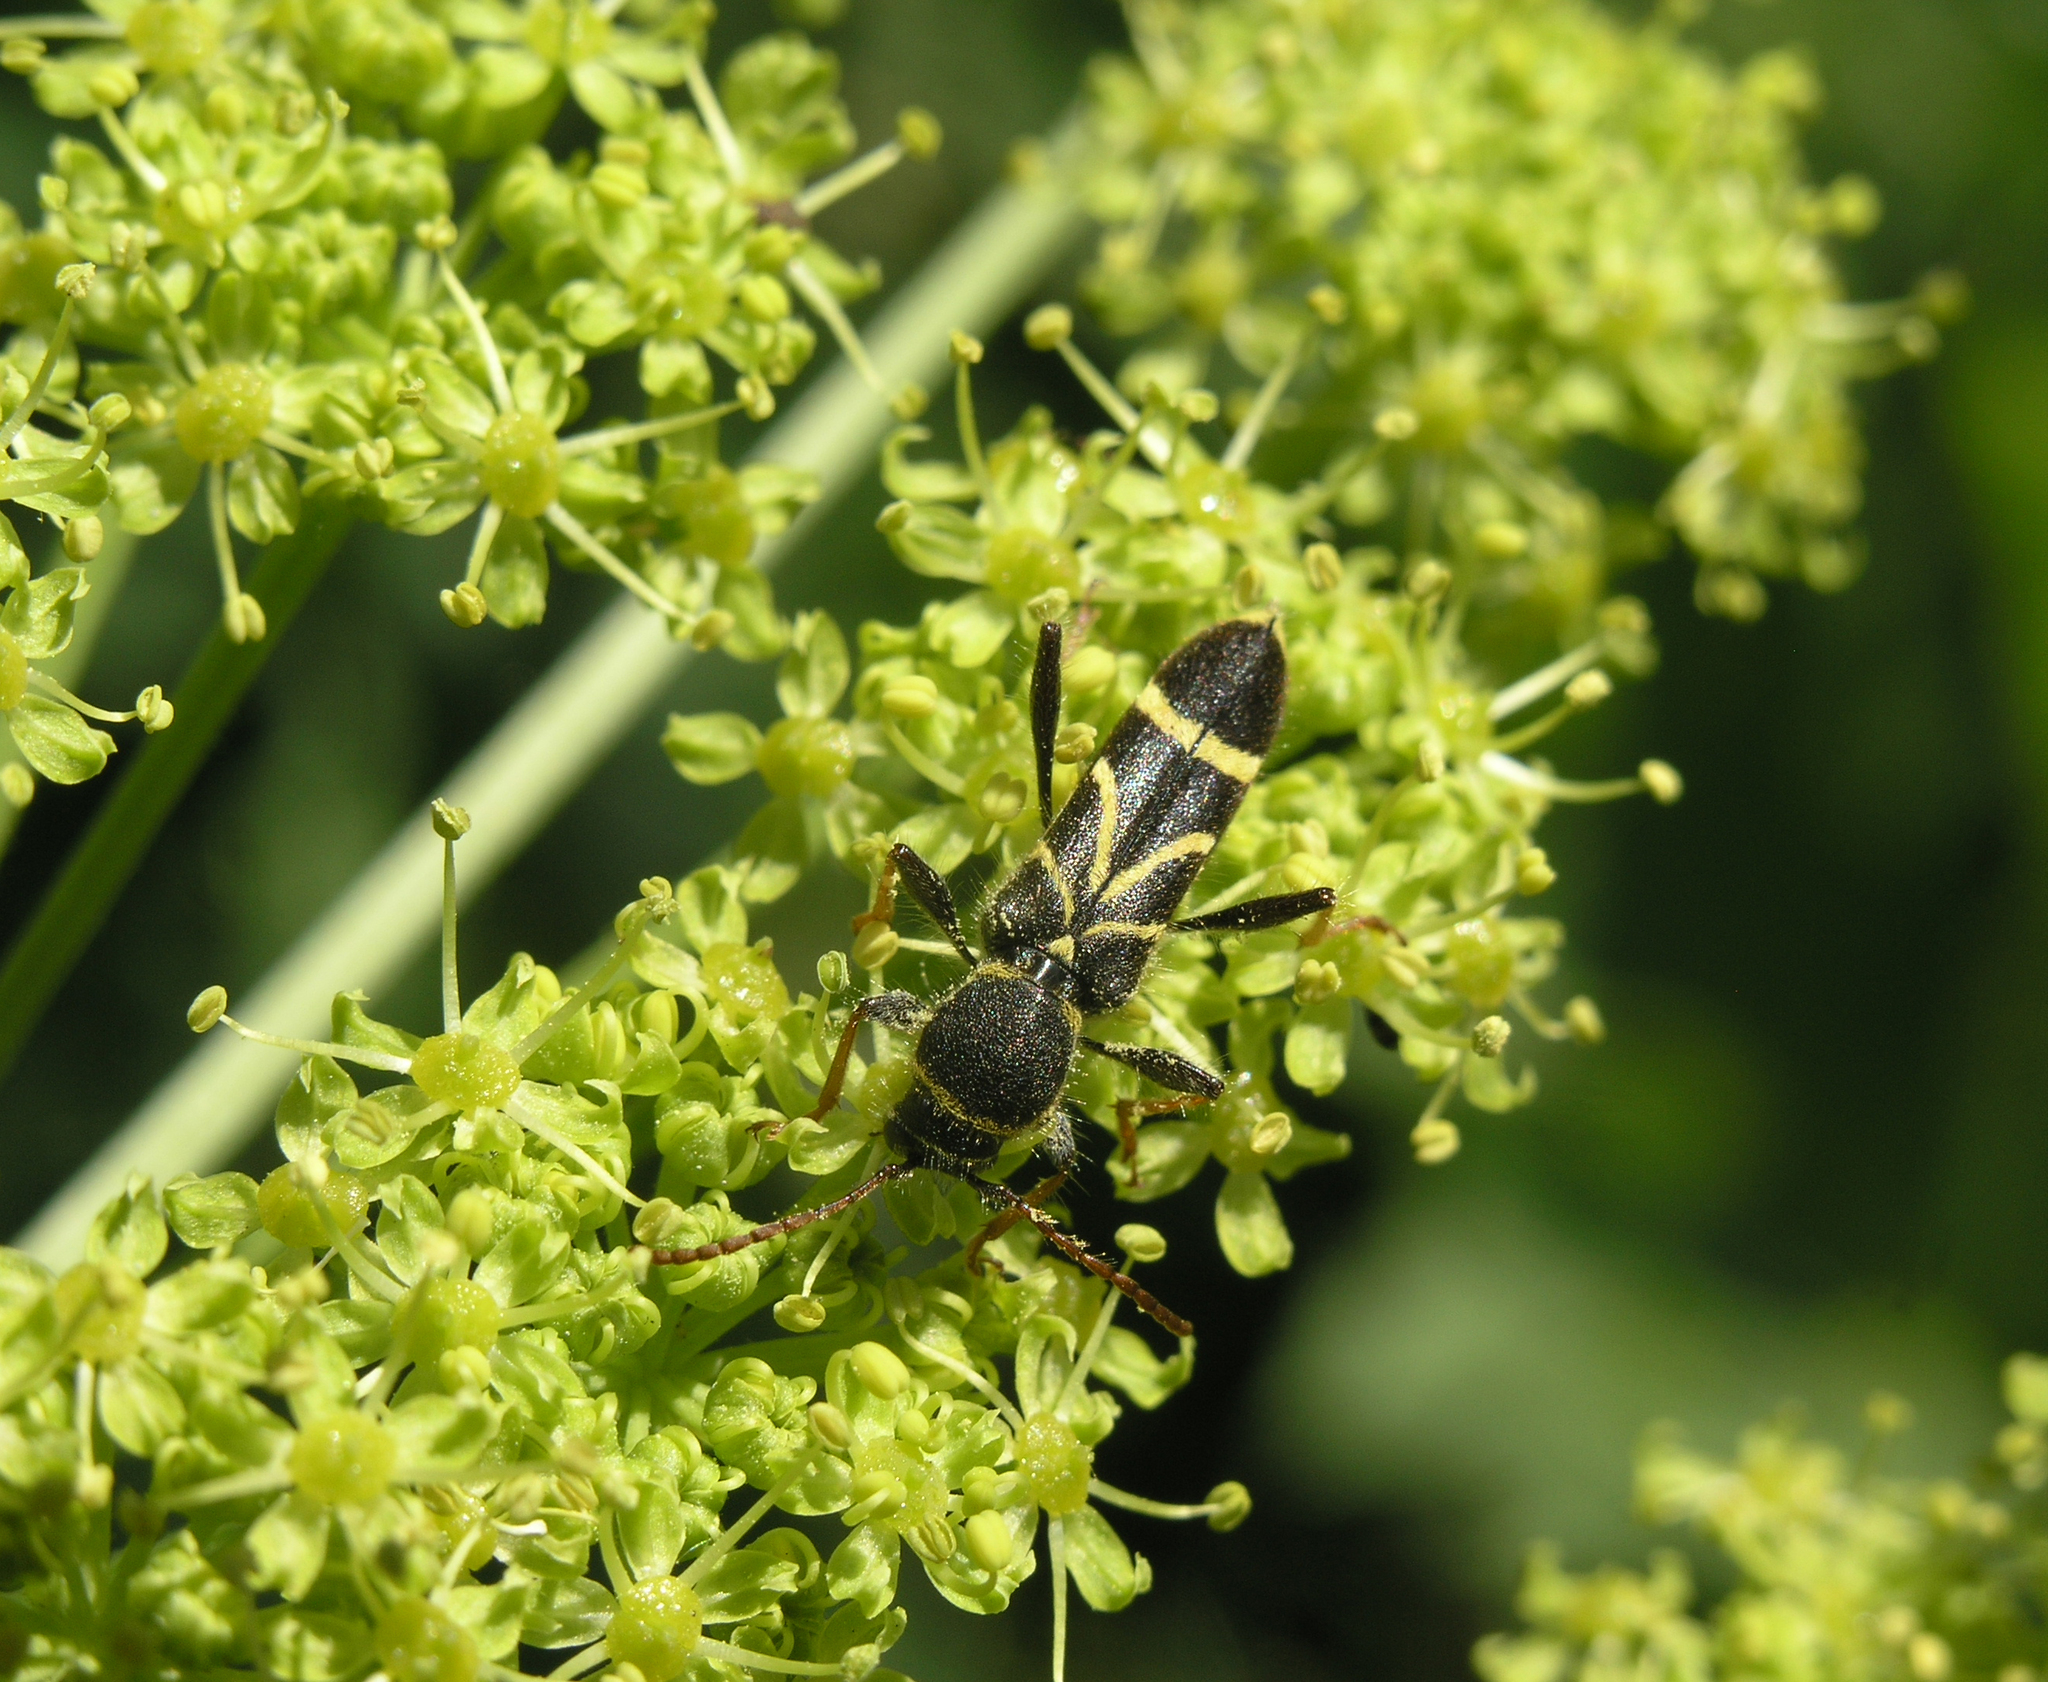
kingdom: Animalia
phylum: Arthropoda
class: Insecta
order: Coleoptera
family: Cerambycidae
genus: Cyrtoclytus
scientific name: Cyrtoclytus capra
